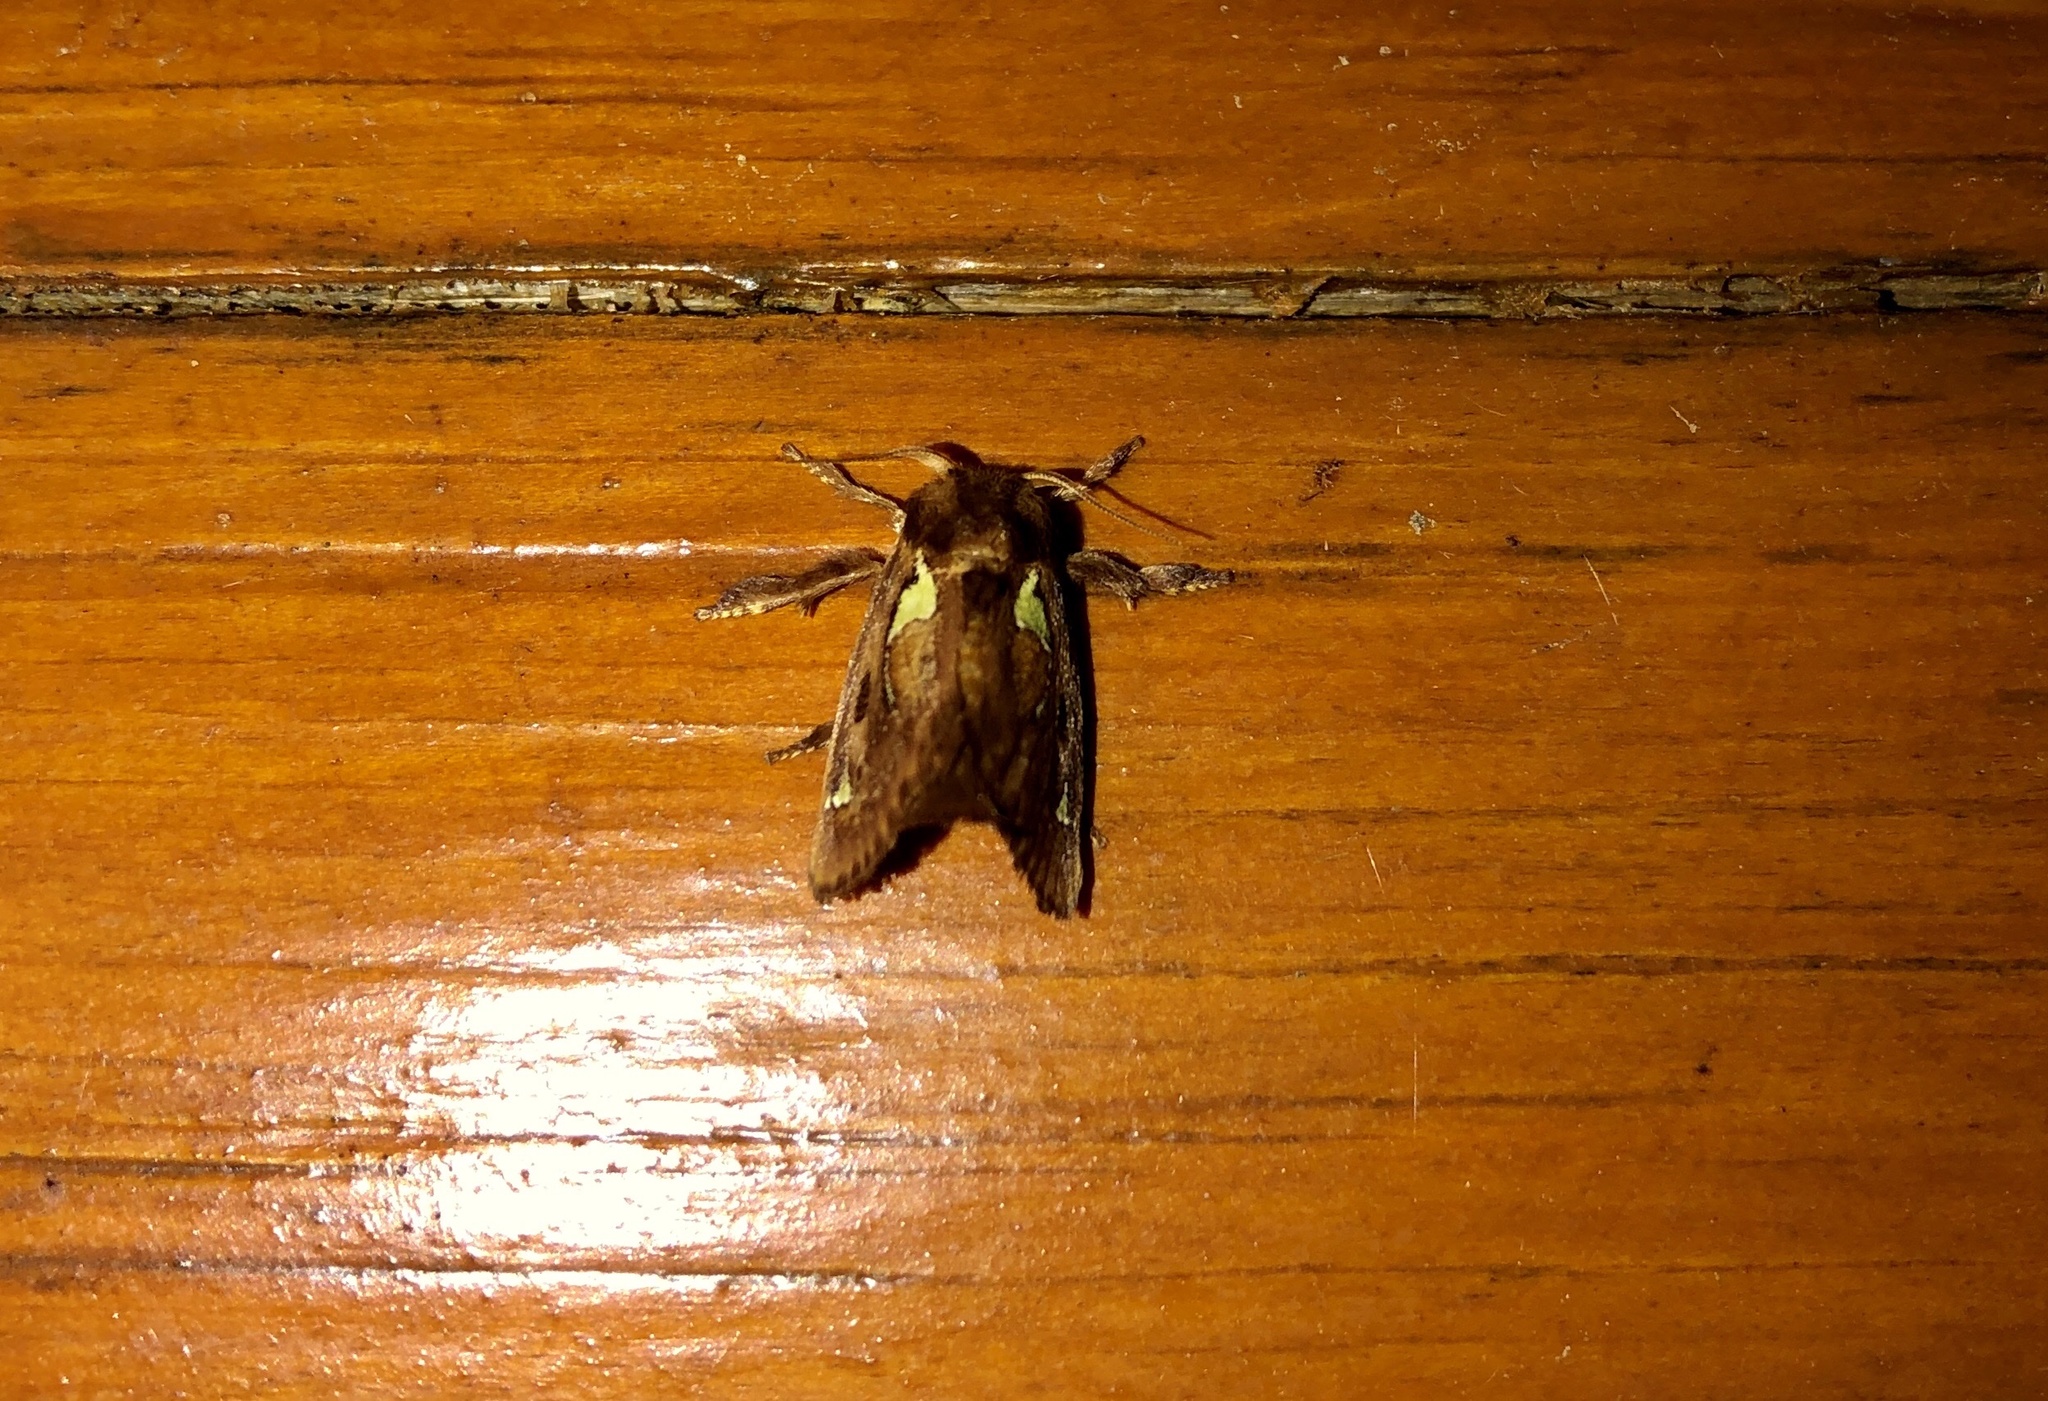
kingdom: Animalia
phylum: Arthropoda
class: Insecta
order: Lepidoptera
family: Limacodidae
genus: Euclea
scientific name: Euclea delphinii
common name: Spiny oak-slug moth
